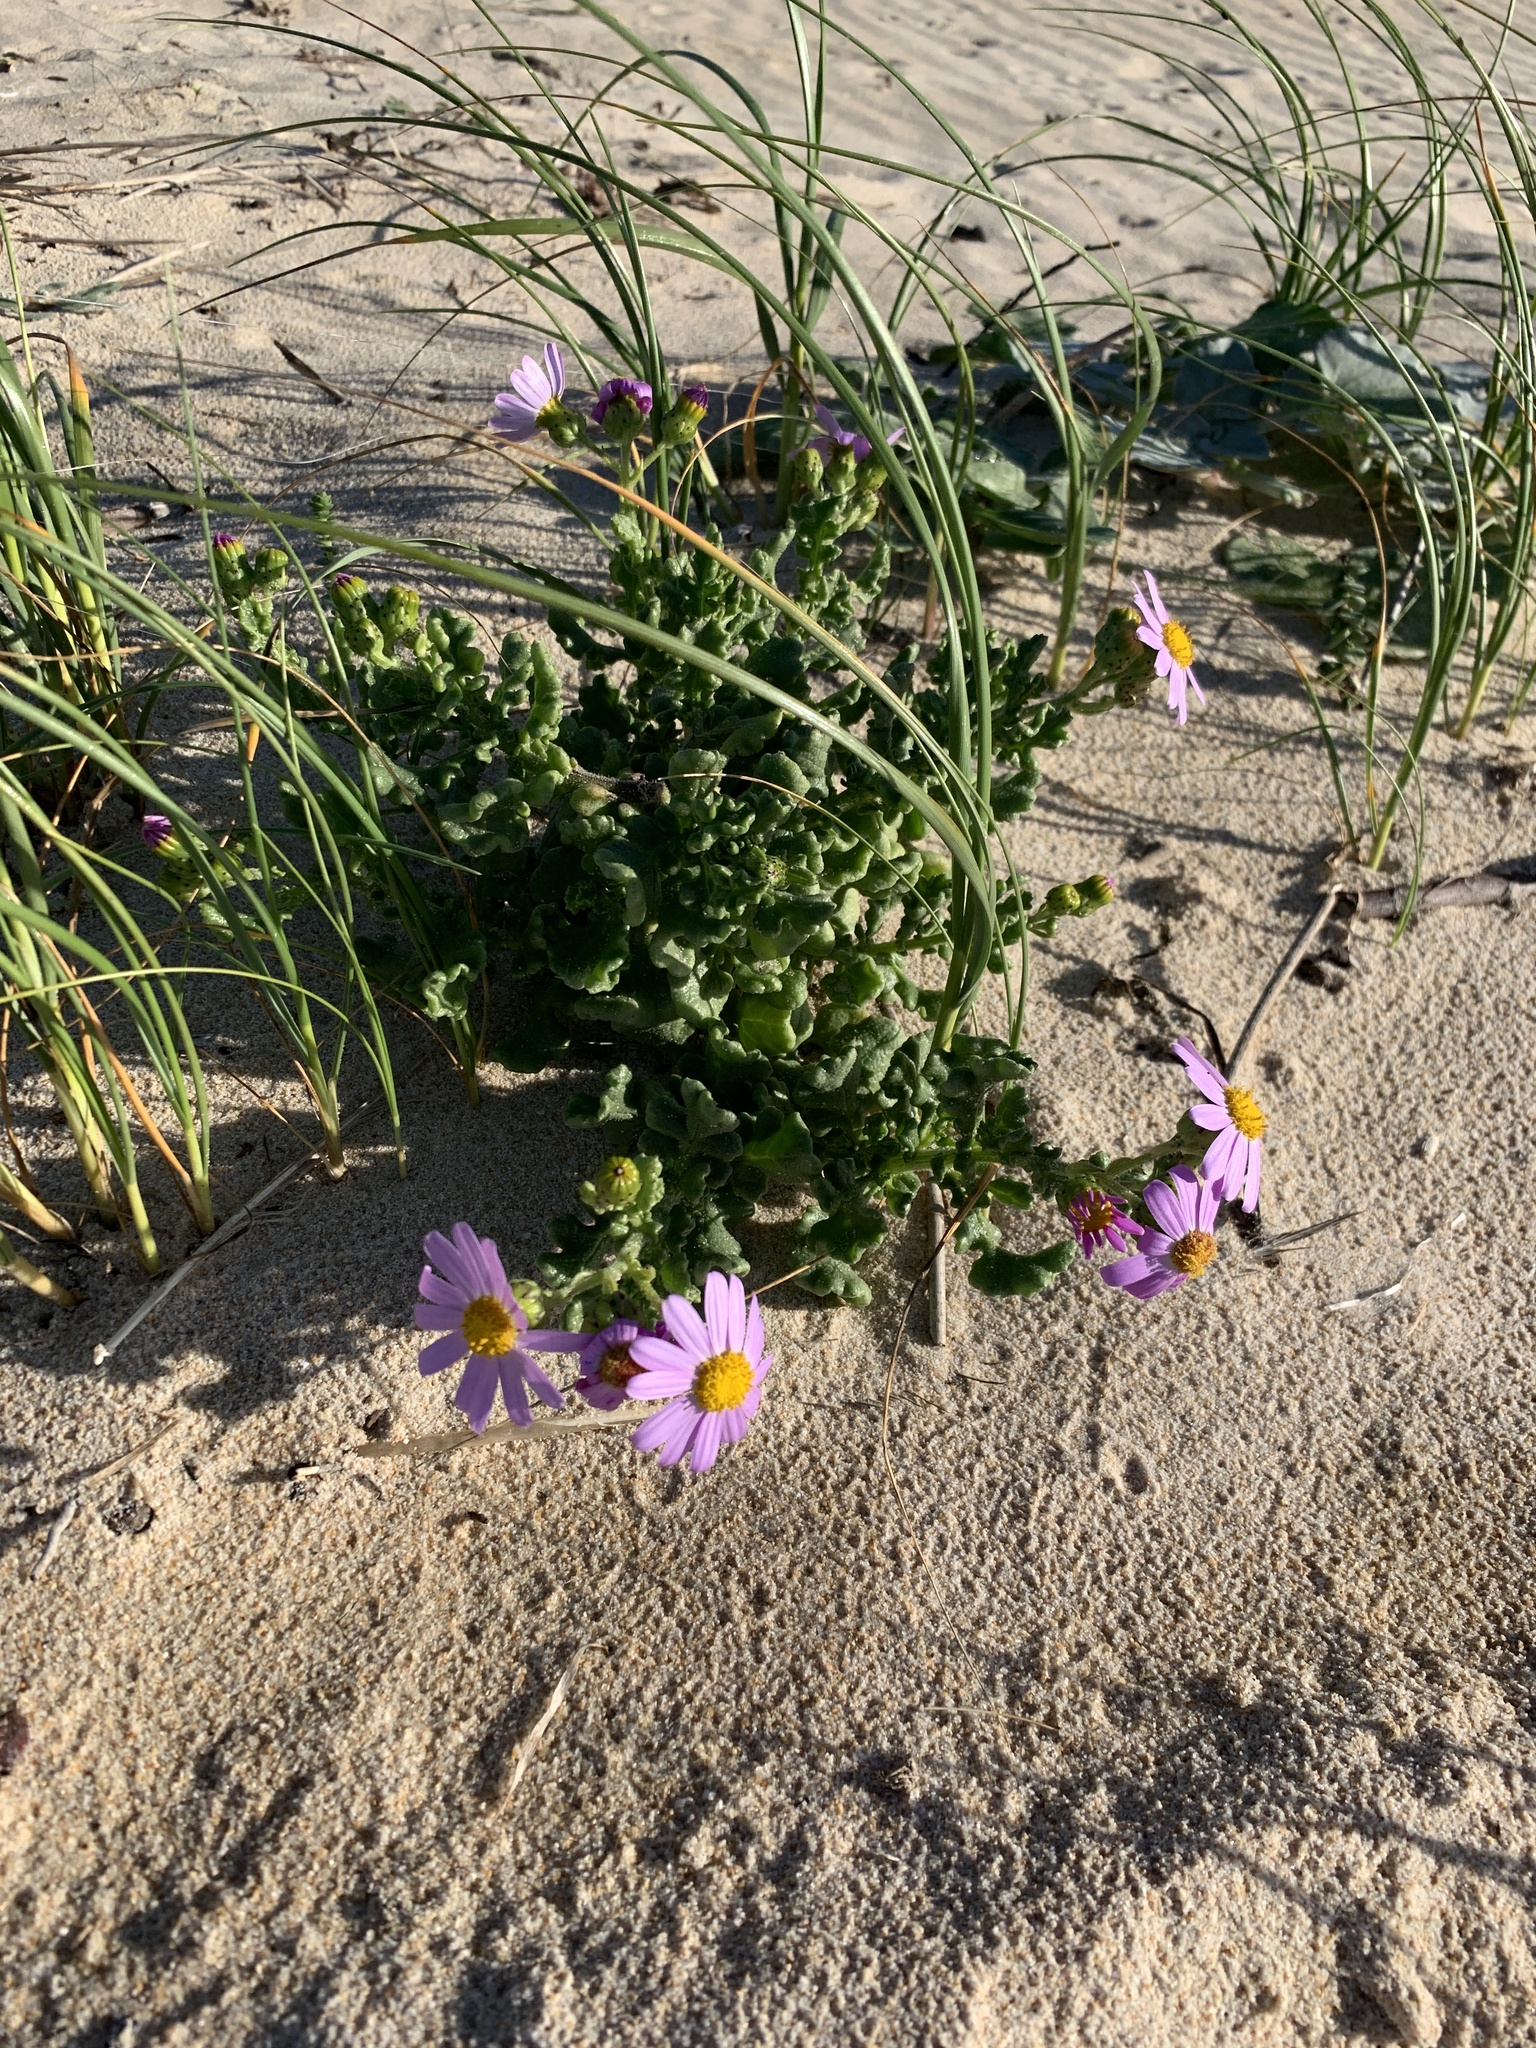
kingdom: Plantae
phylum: Tracheophyta
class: Magnoliopsida
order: Asterales
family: Asteraceae
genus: Senecio
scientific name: Senecio elegans
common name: Purple groundsel
